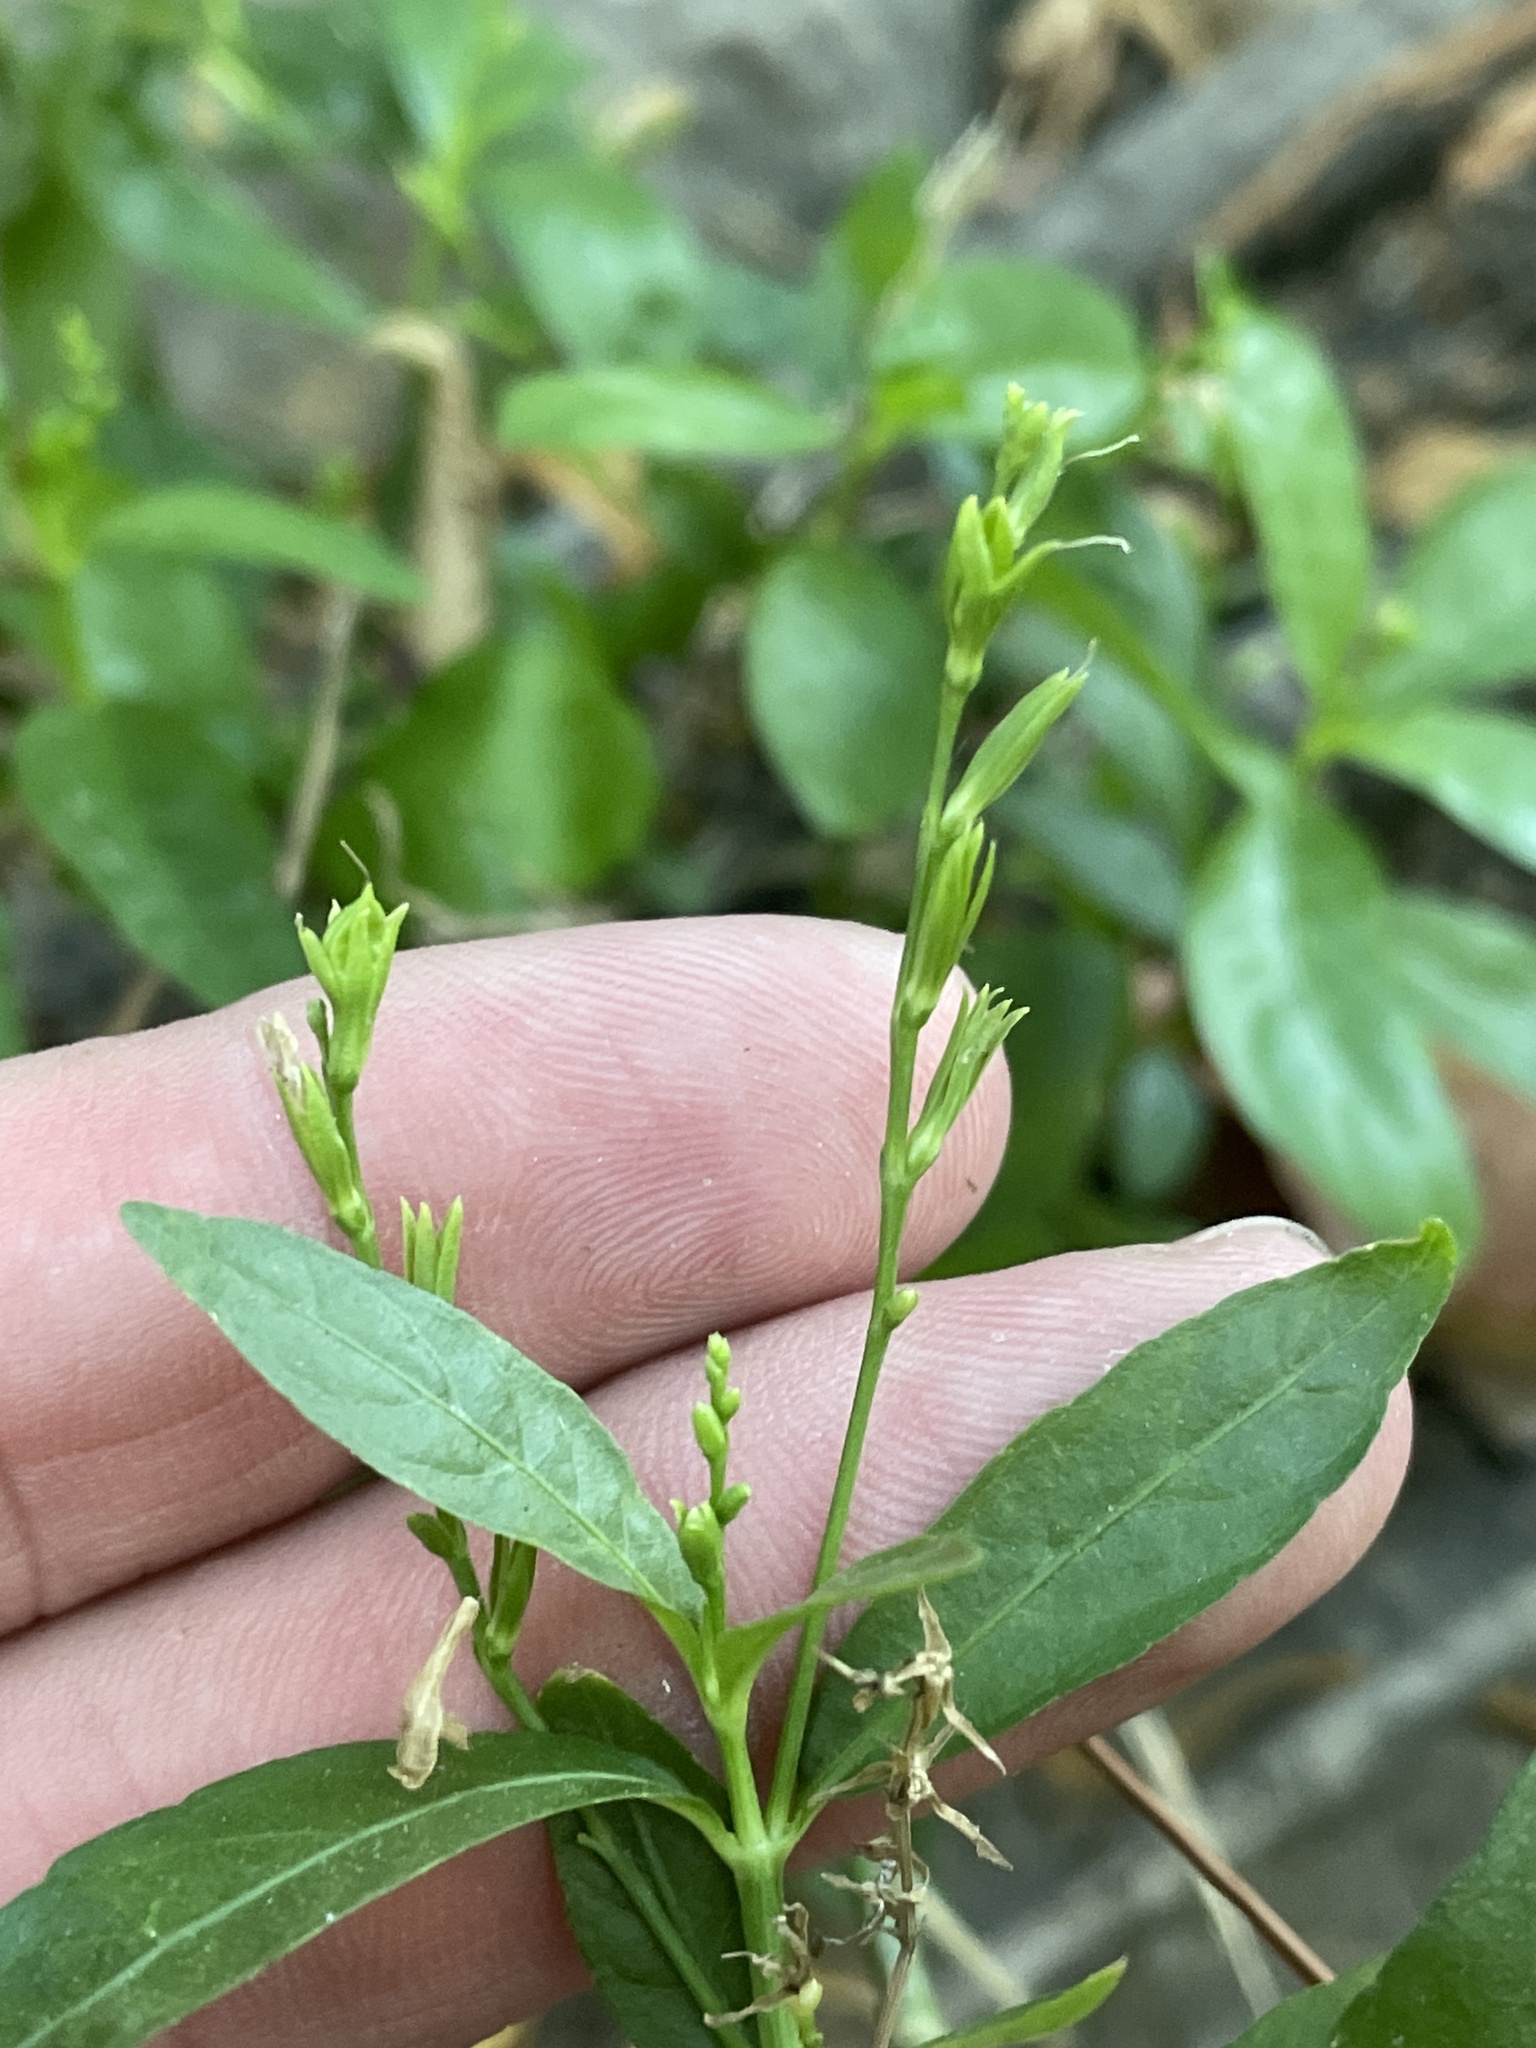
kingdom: Plantae
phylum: Tracheophyta
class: Magnoliopsida
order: Lamiales
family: Acanthaceae
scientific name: Acanthaceae
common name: Acanthaceae
